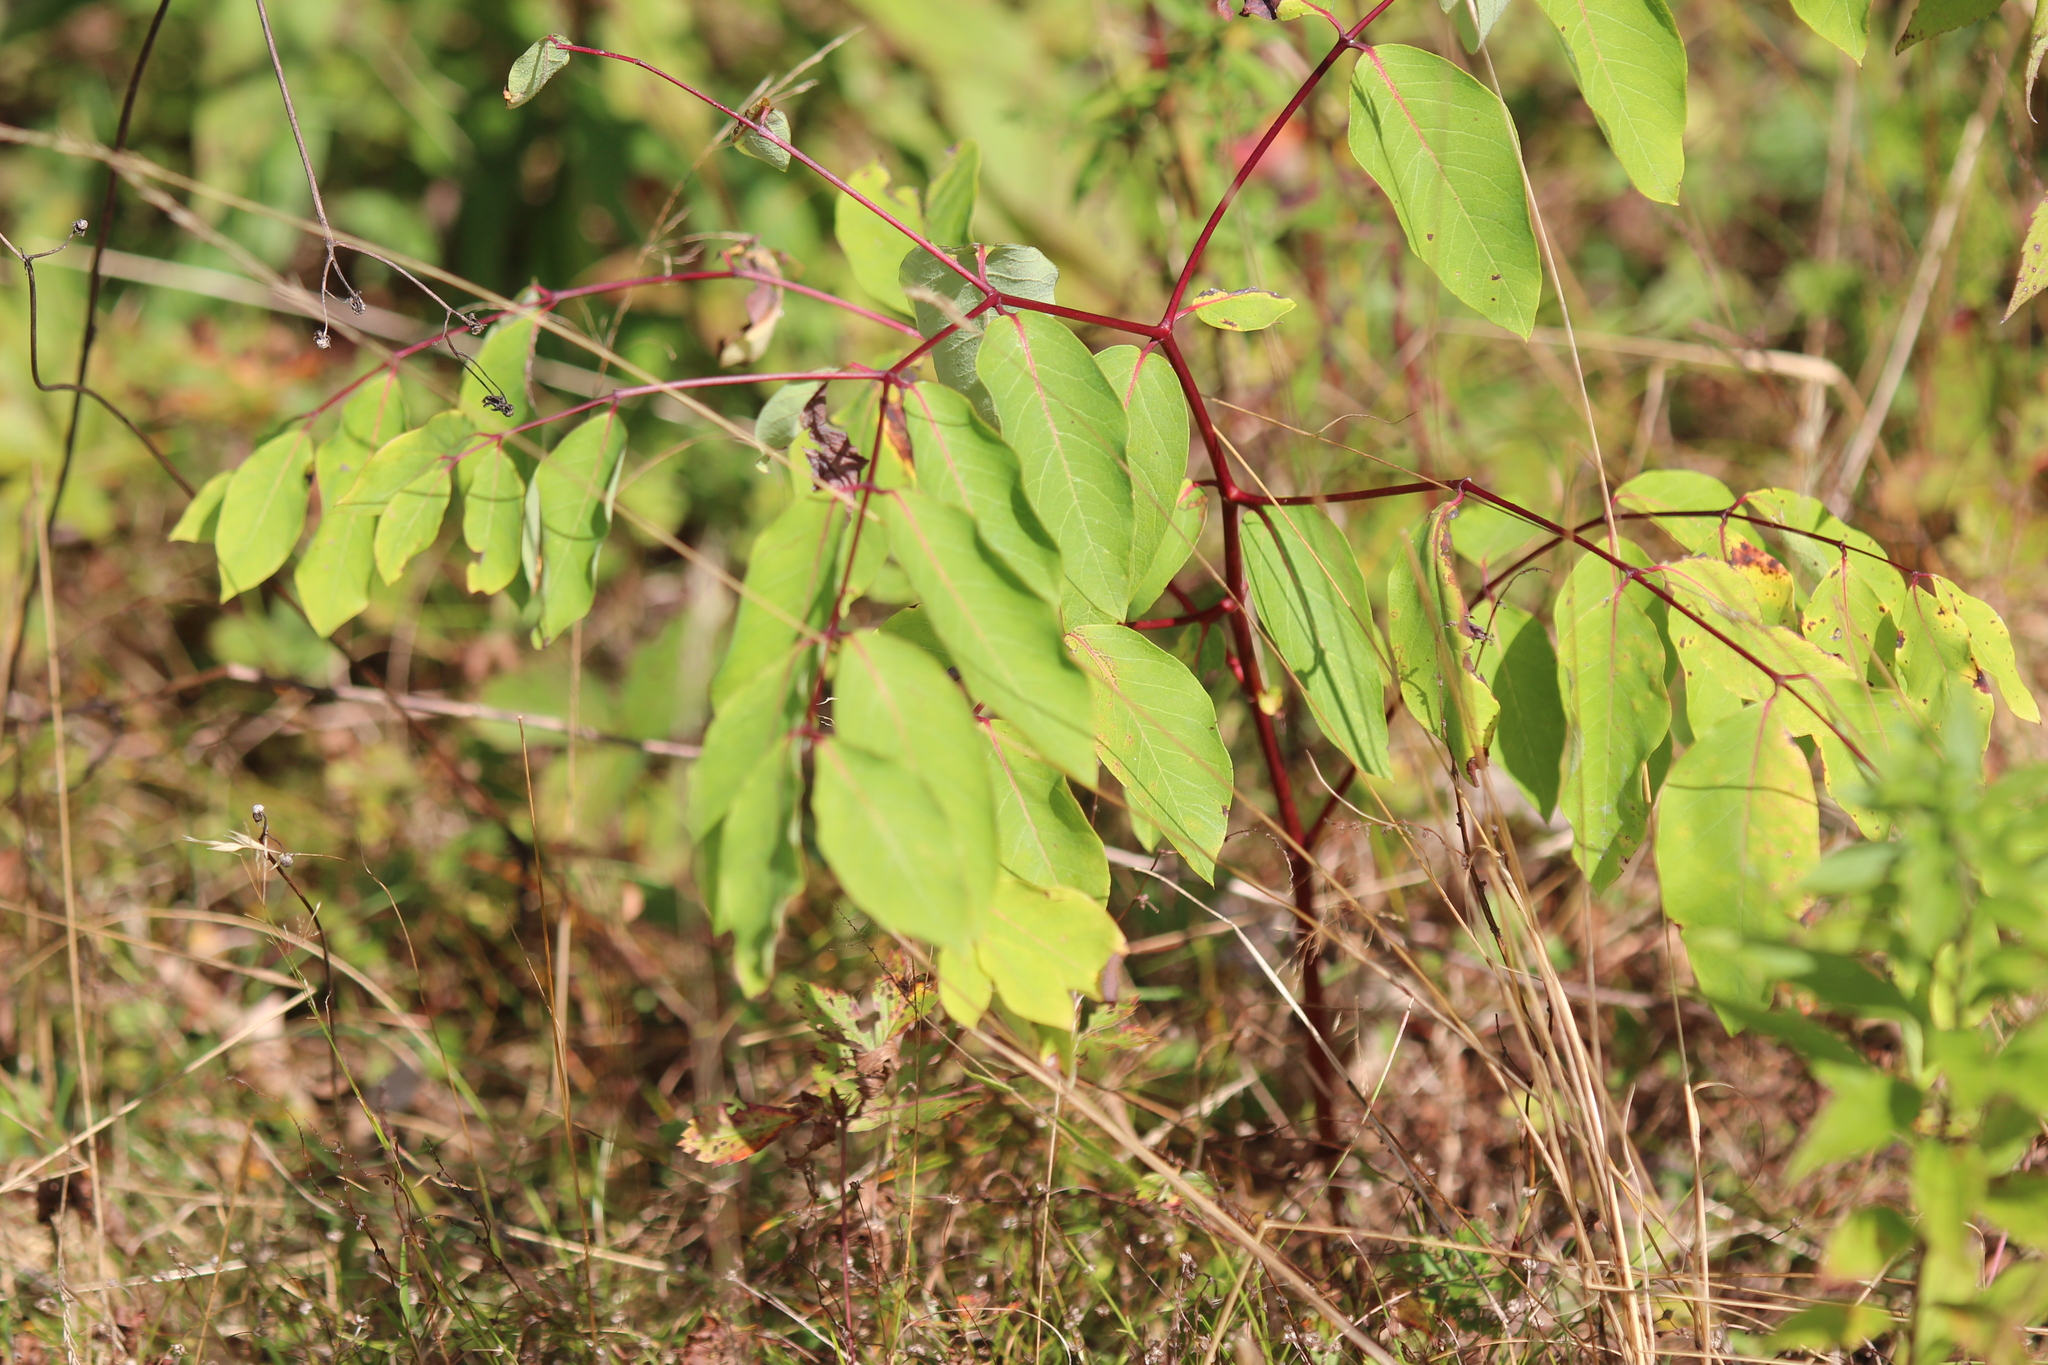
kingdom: Plantae
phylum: Tracheophyta
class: Magnoliopsida
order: Gentianales
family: Apocynaceae
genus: Apocynum
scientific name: Apocynum androsaemifolium
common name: Spreading dogbane
